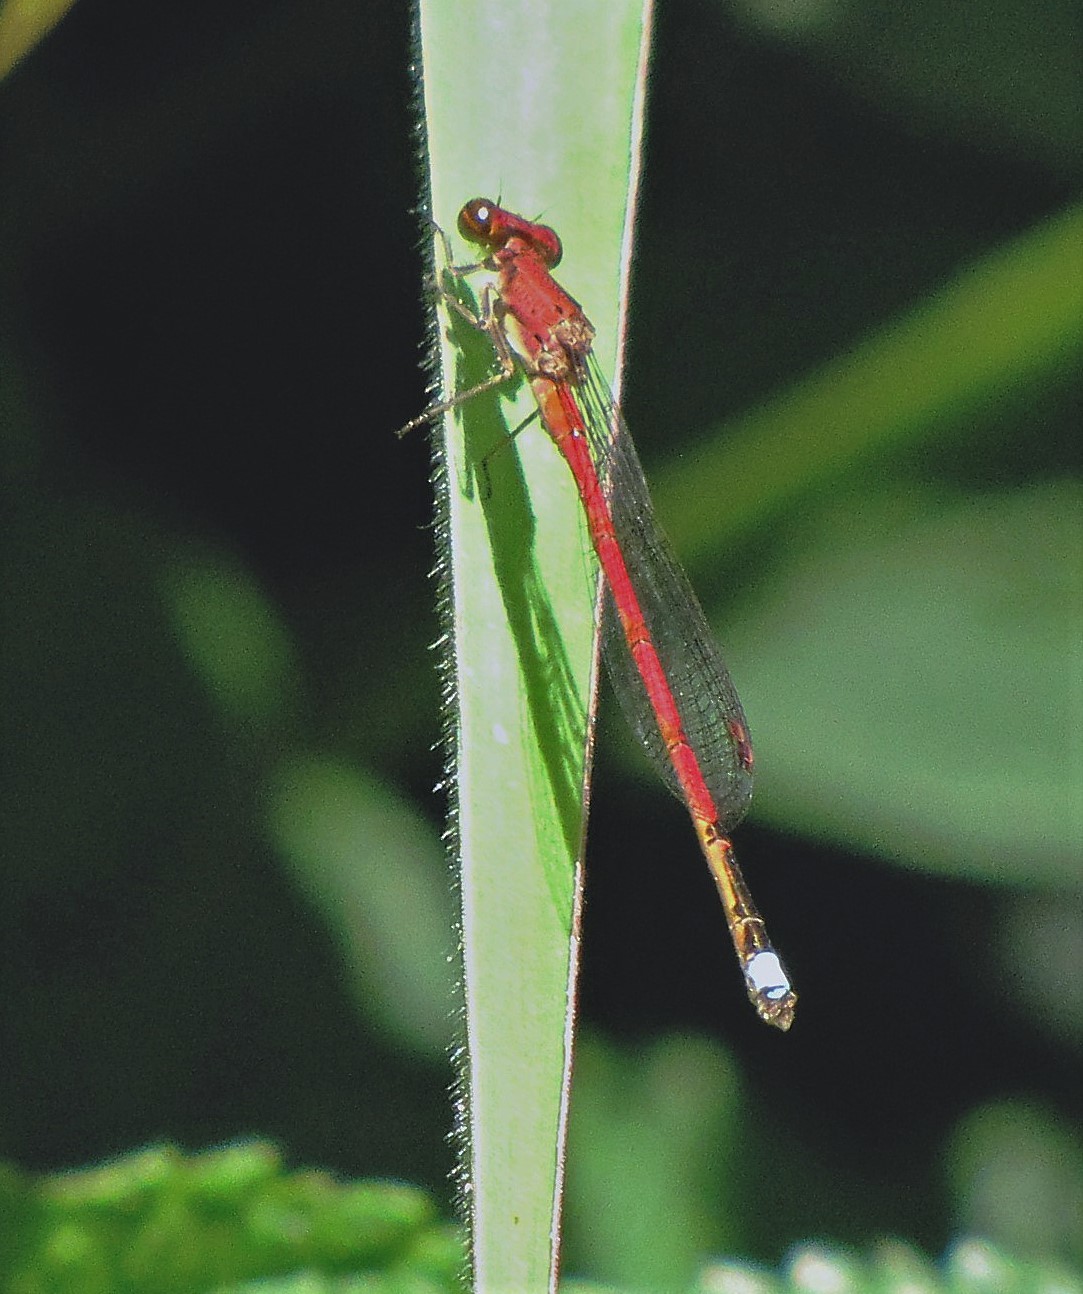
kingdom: Animalia
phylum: Arthropoda
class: Insecta
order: Odonata
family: Coenagrionidae
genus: Oxyagrion
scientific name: Oxyagrion terminale
